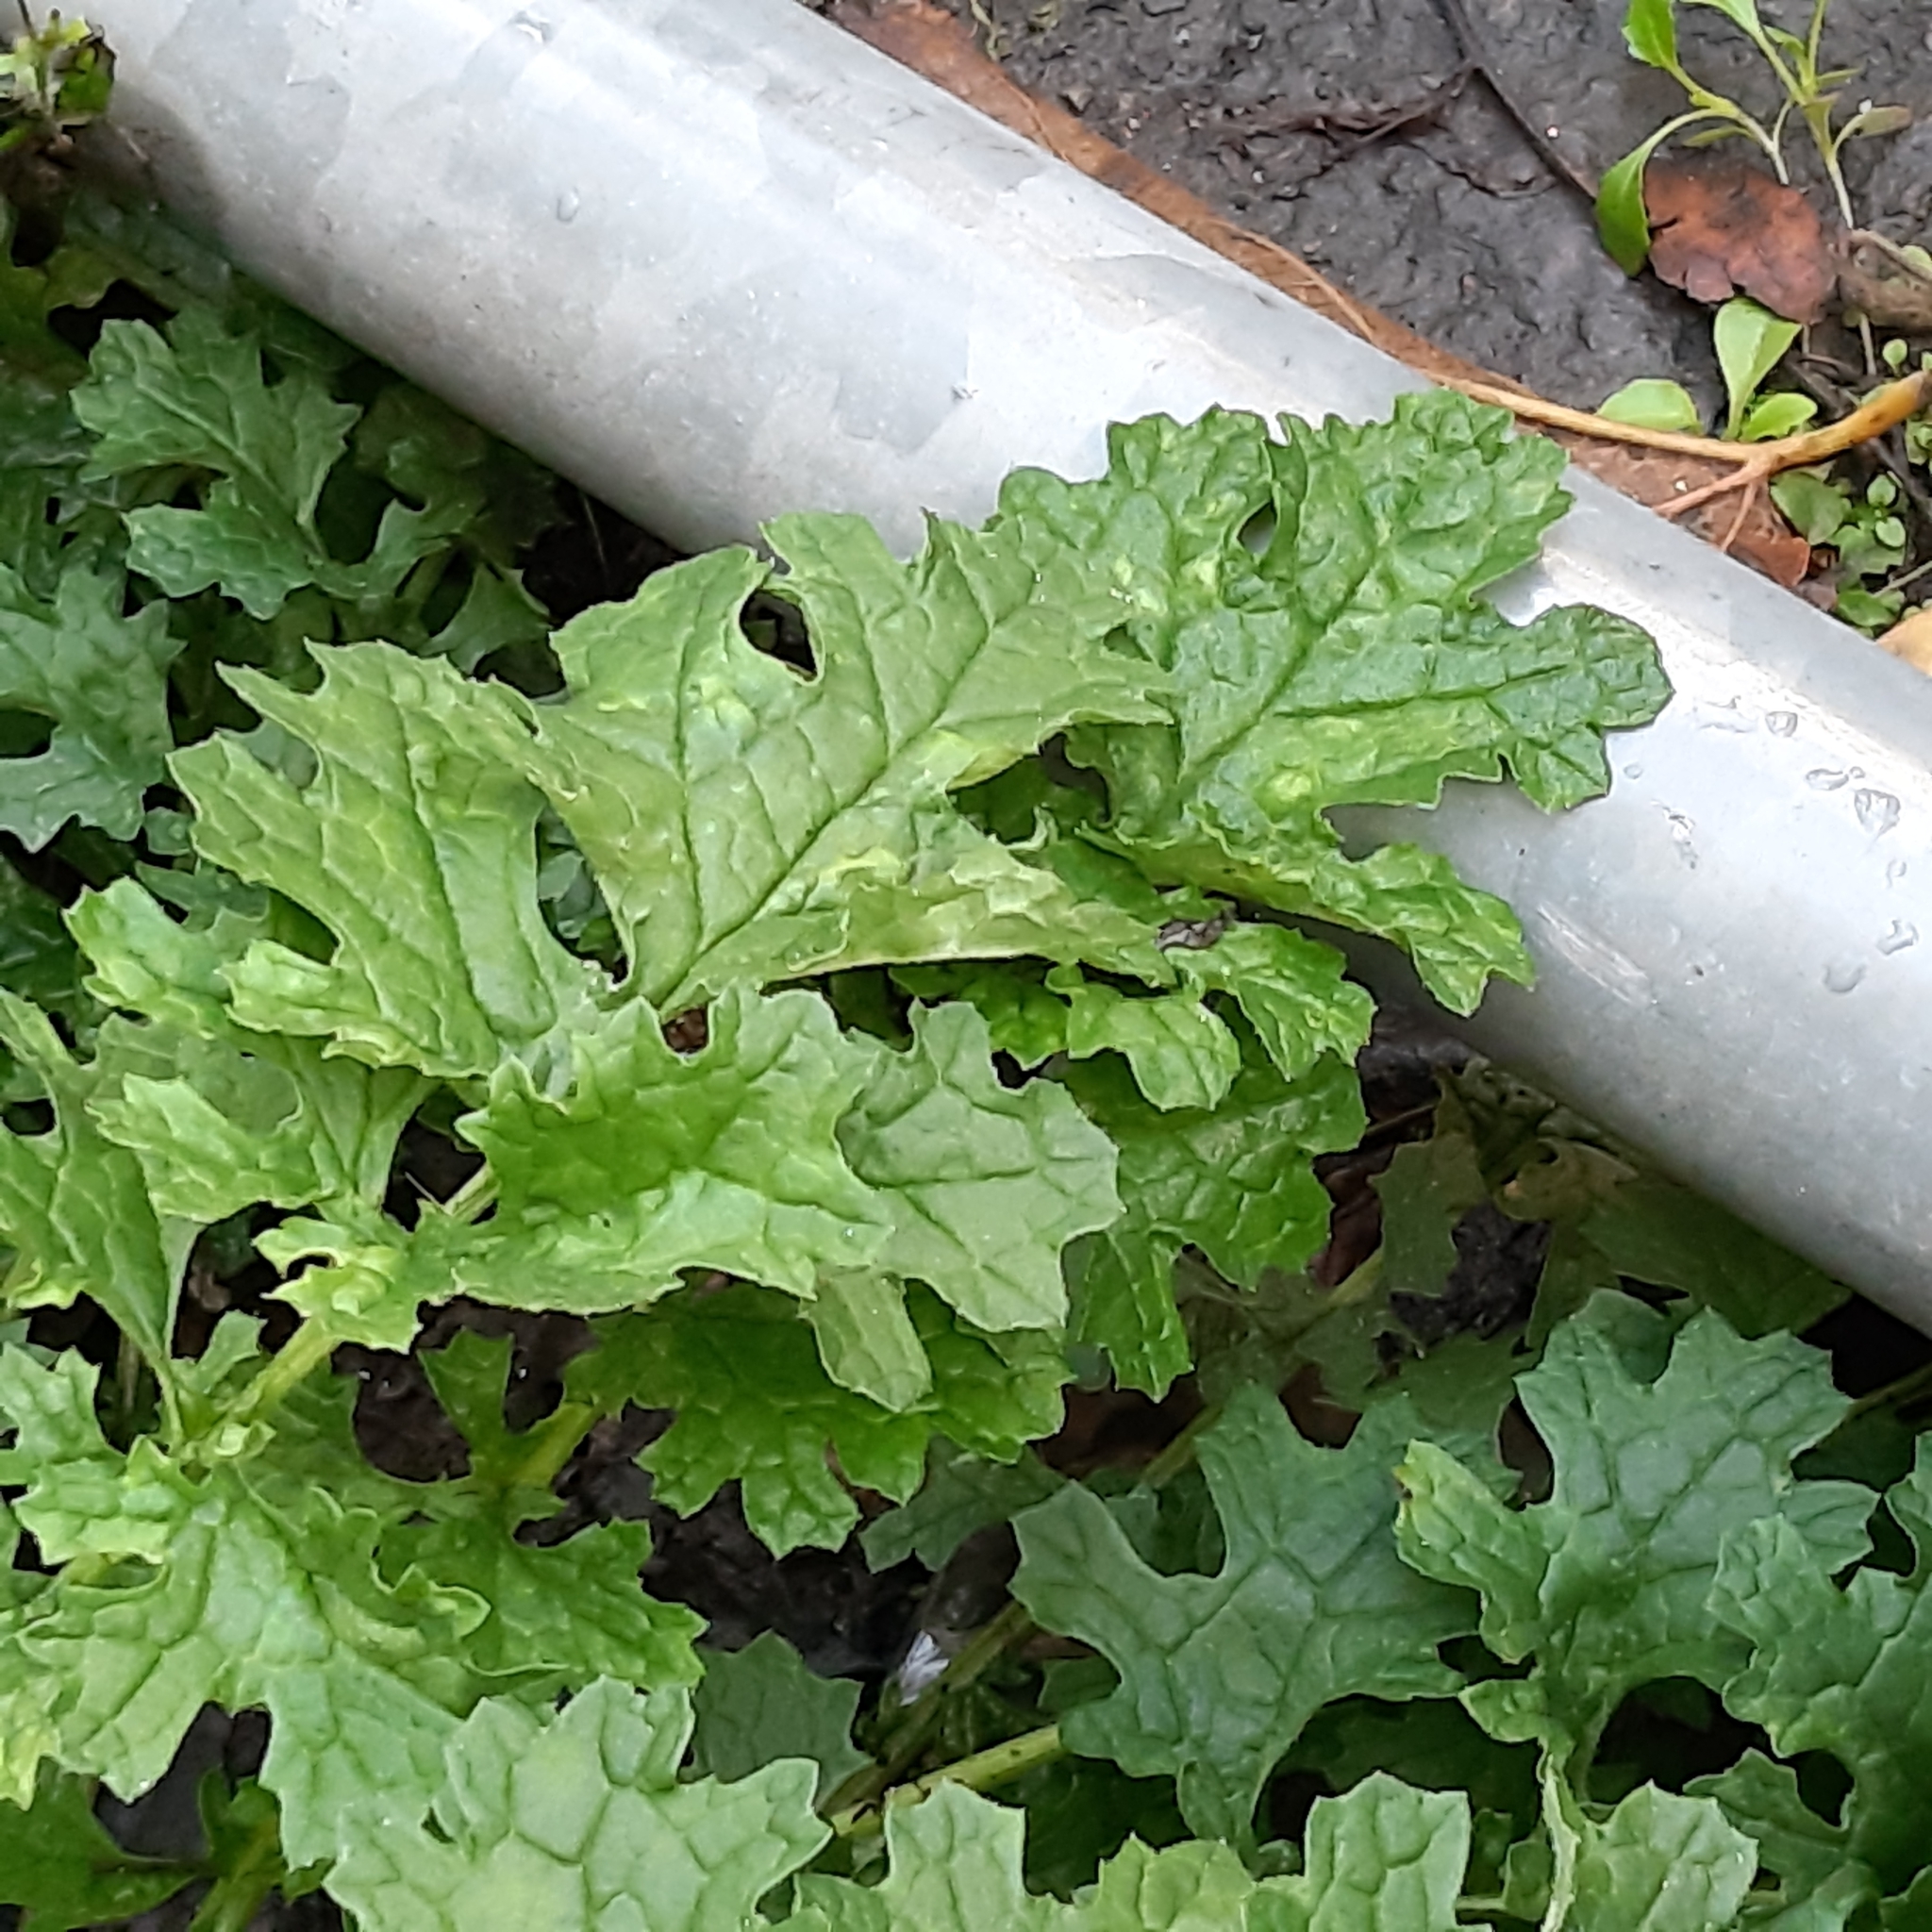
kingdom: Plantae
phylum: Tracheophyta
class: Magnoliopsida
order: Asterales
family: Asteraceae
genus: Jacobaea
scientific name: Jacobaea vulgaris
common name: Stinking willie
